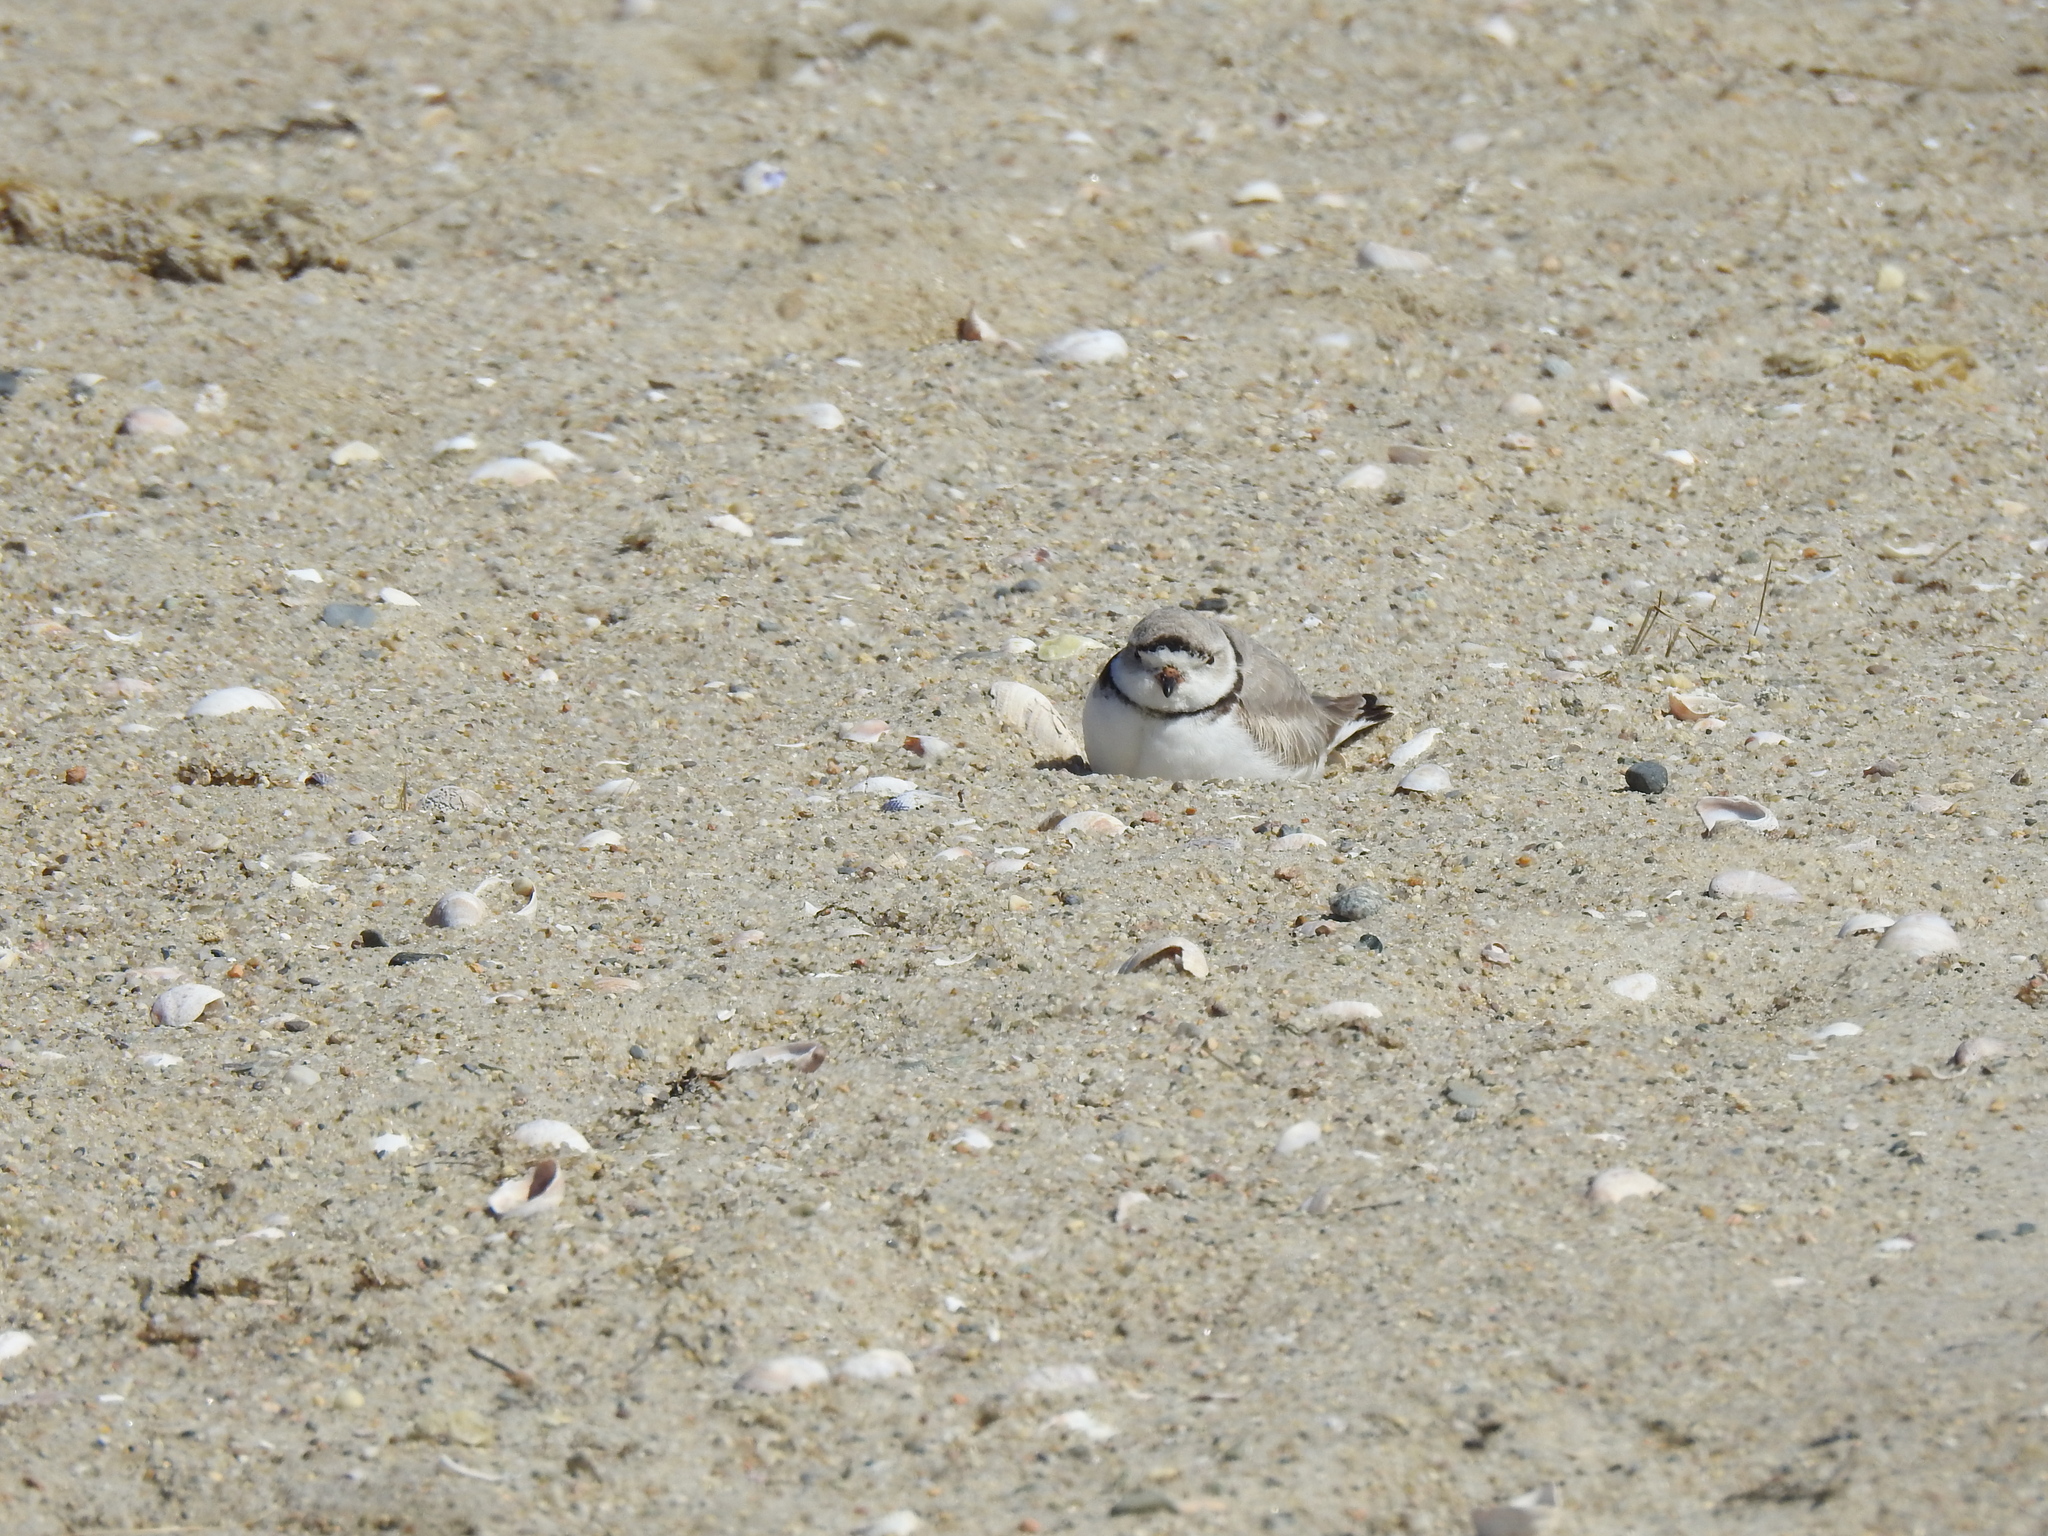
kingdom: Animalia
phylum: Chordata
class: Aves
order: Charadriiformes
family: Charadriidae
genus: Charadrius
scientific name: Charadrius melodus
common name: Piping plover
